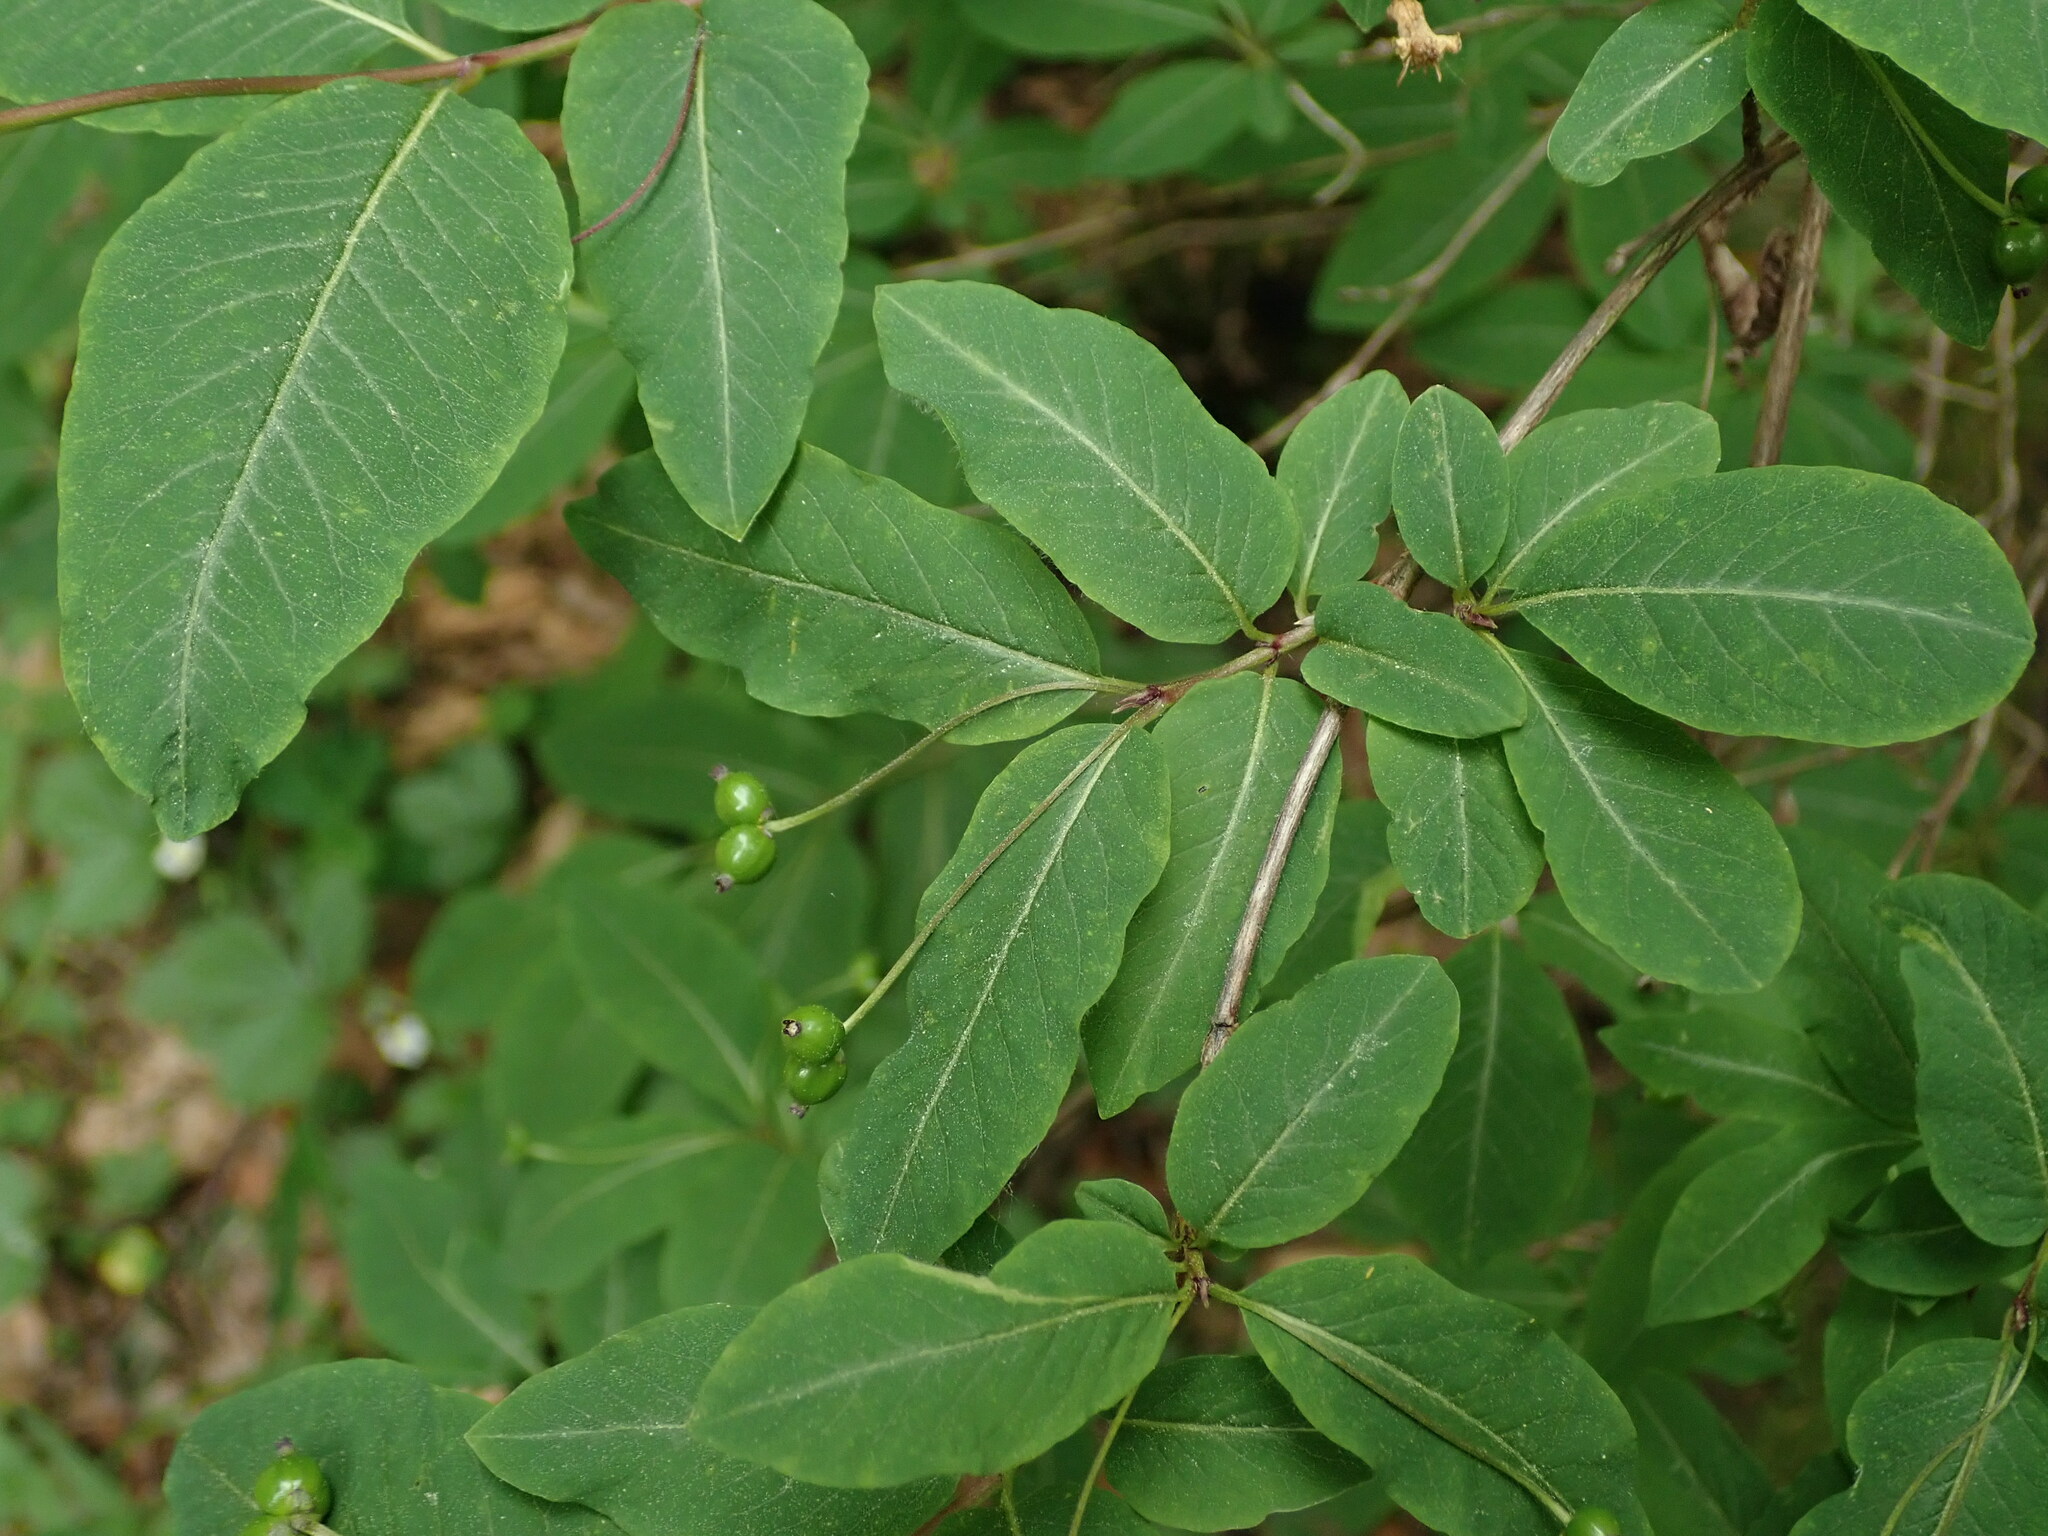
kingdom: Plantae
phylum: Tracheophyta
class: Magnoliopsida
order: Dipsacales
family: Caprifoliaceae
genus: Lonicera
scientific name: Lonicera nigra
